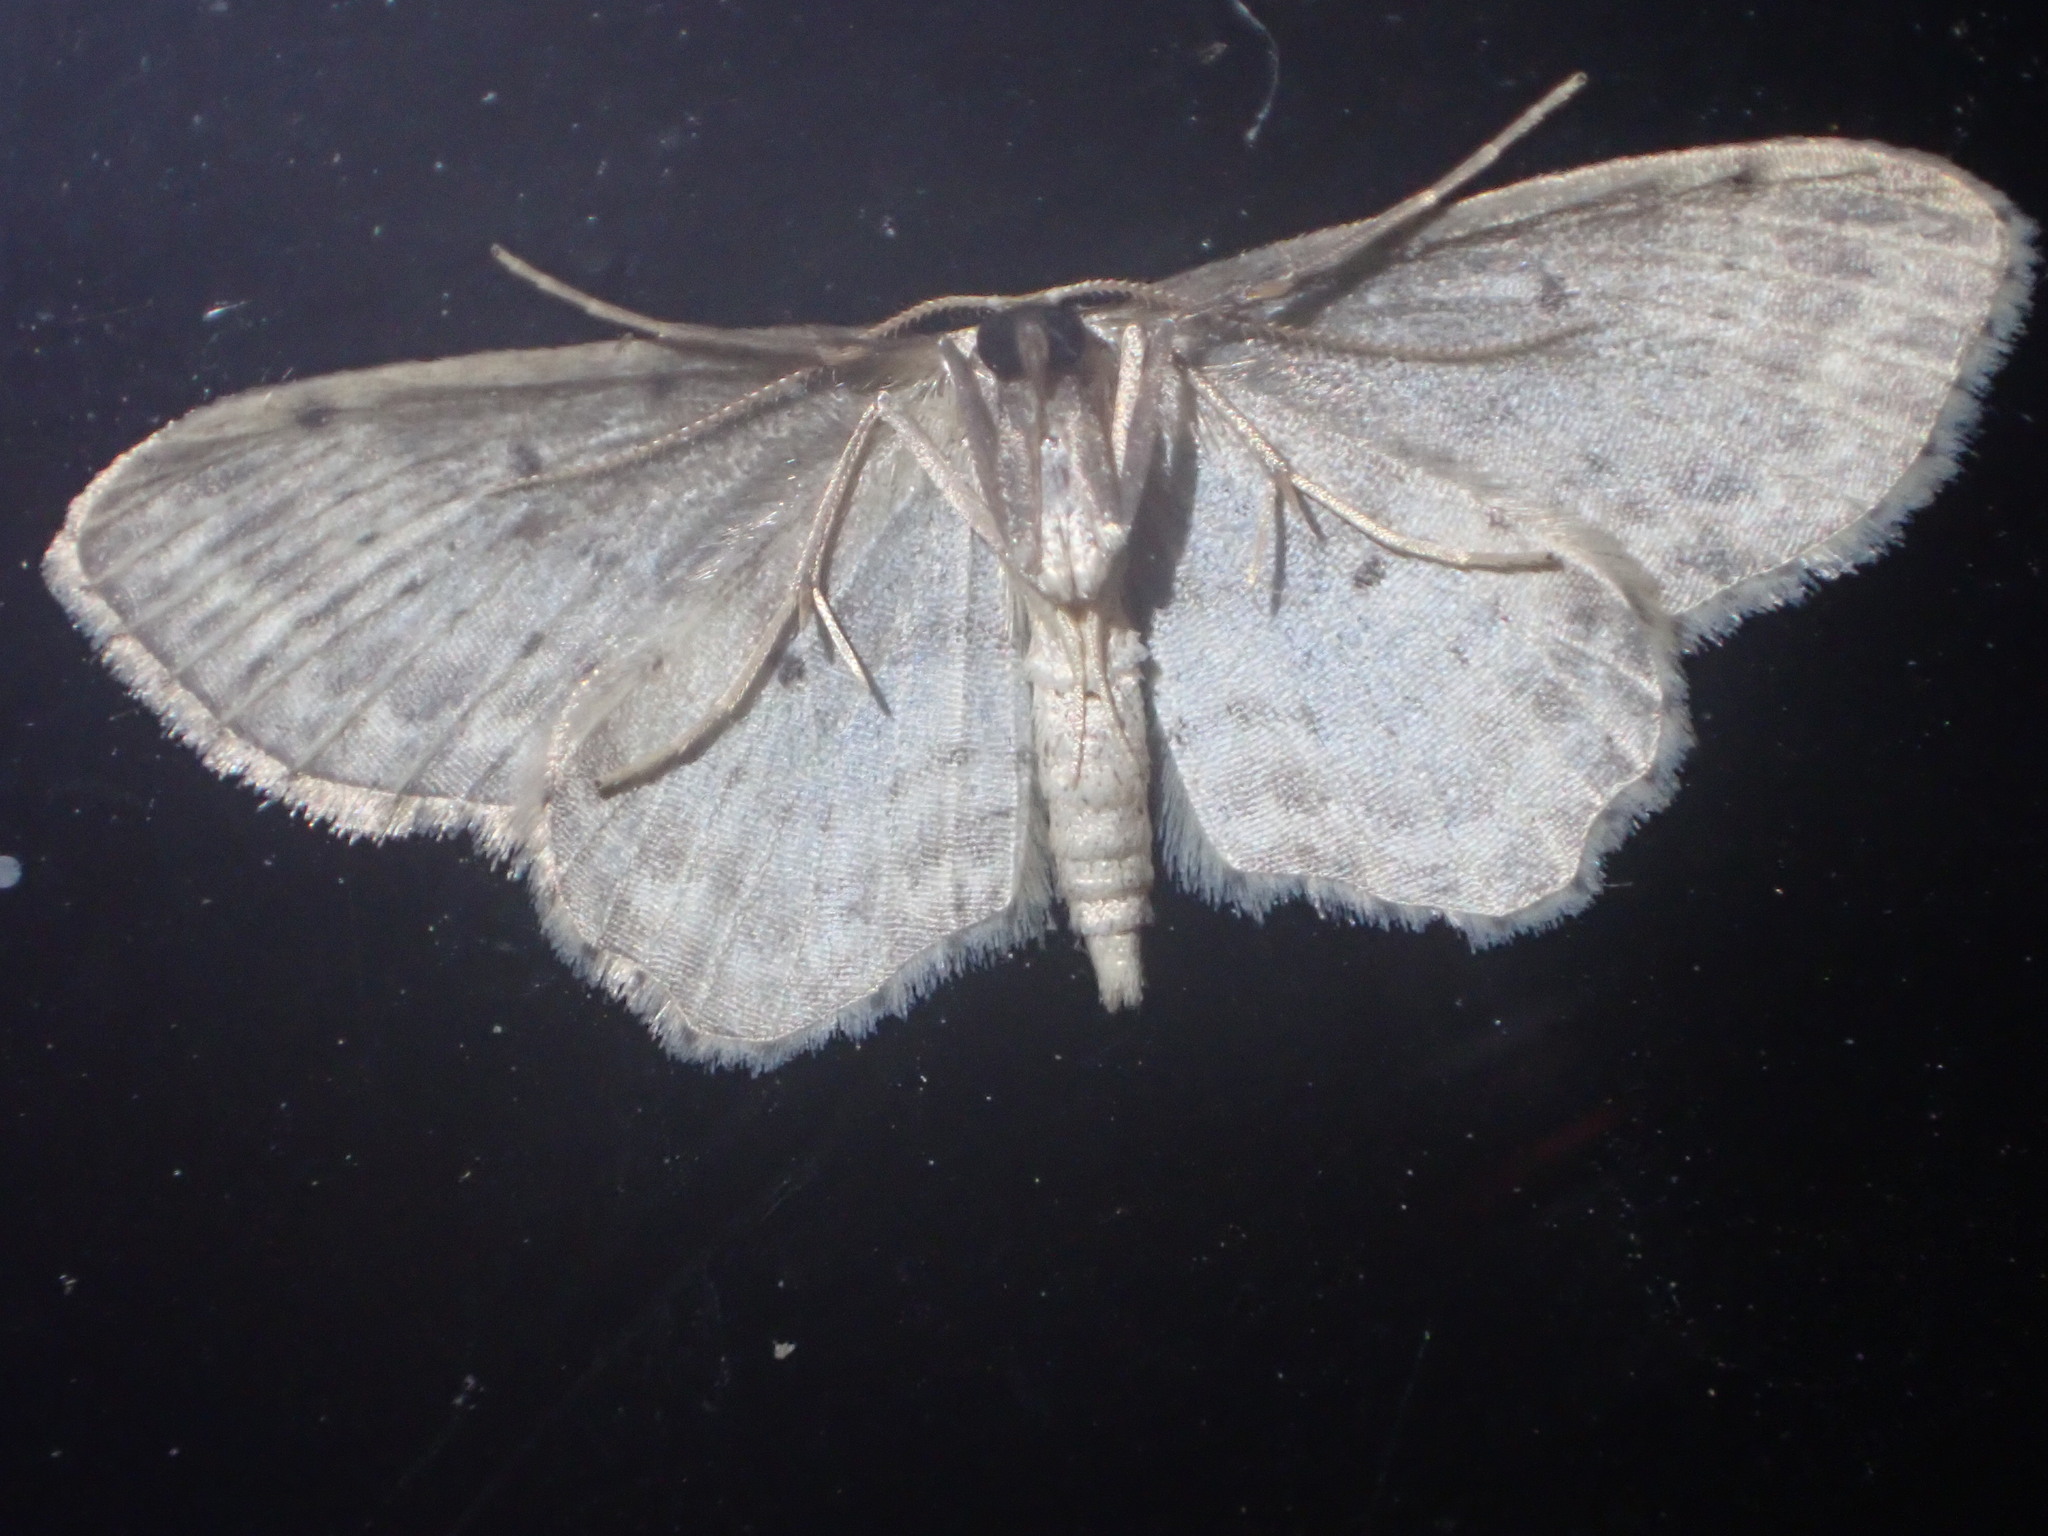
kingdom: Animalia
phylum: Arthropoda
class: Insecta
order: Lepidoptera
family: Geometridae
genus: Idaea
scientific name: Idaea dimidiata
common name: Single-dotted wave
